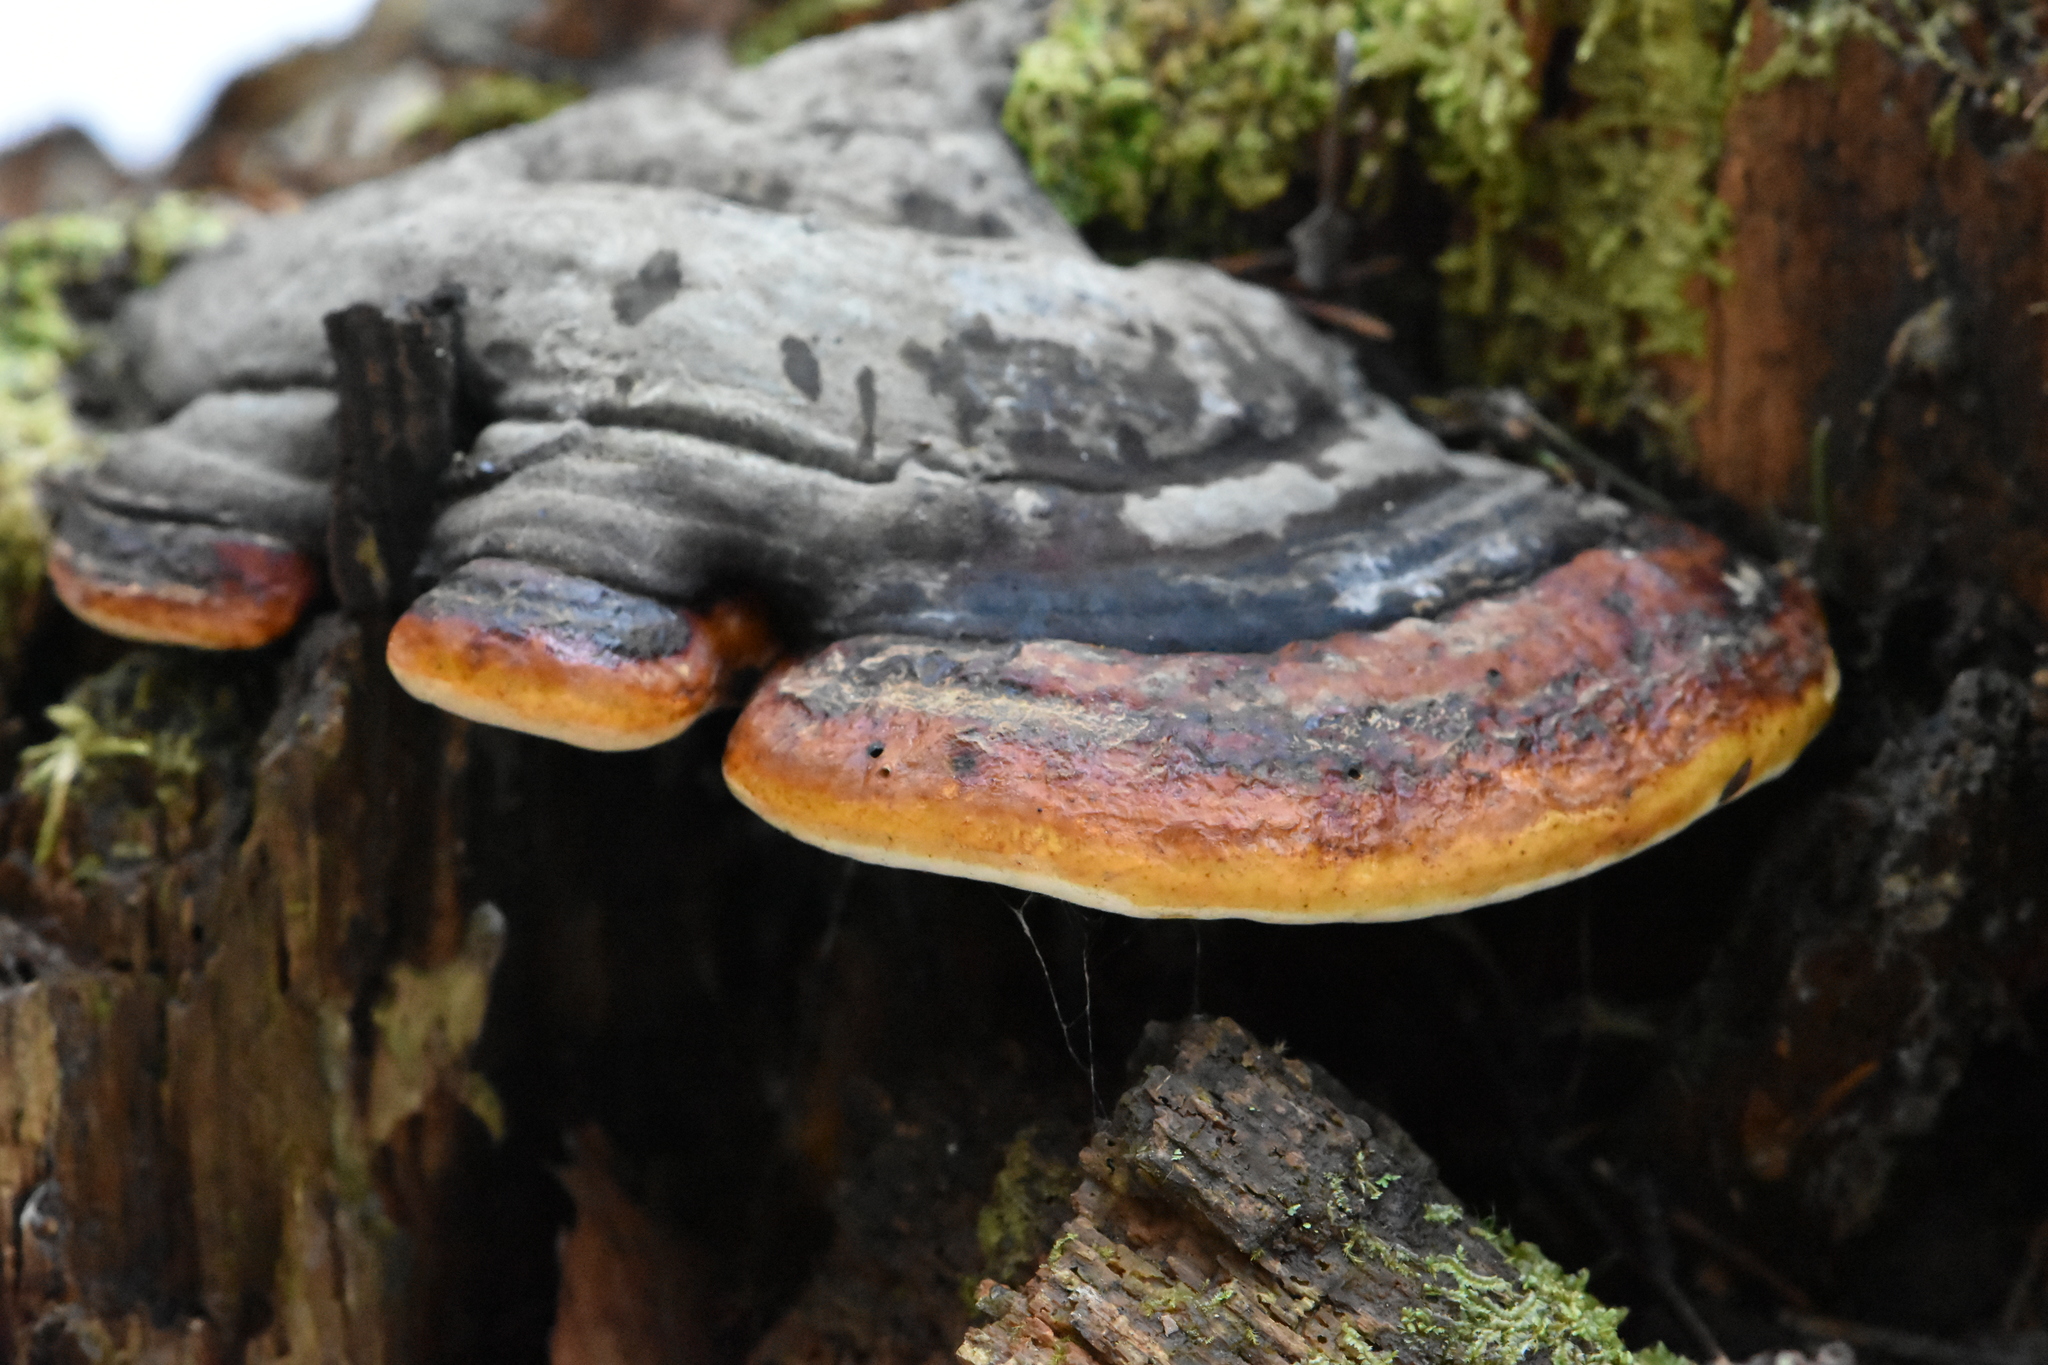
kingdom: Fungi
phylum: Basidiomycota
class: Agaricomycetes
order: Polyporales
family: Fomitopsidaceae
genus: Fomitopsis
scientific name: Fomitopsis pinicola
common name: Red-belted bracket
